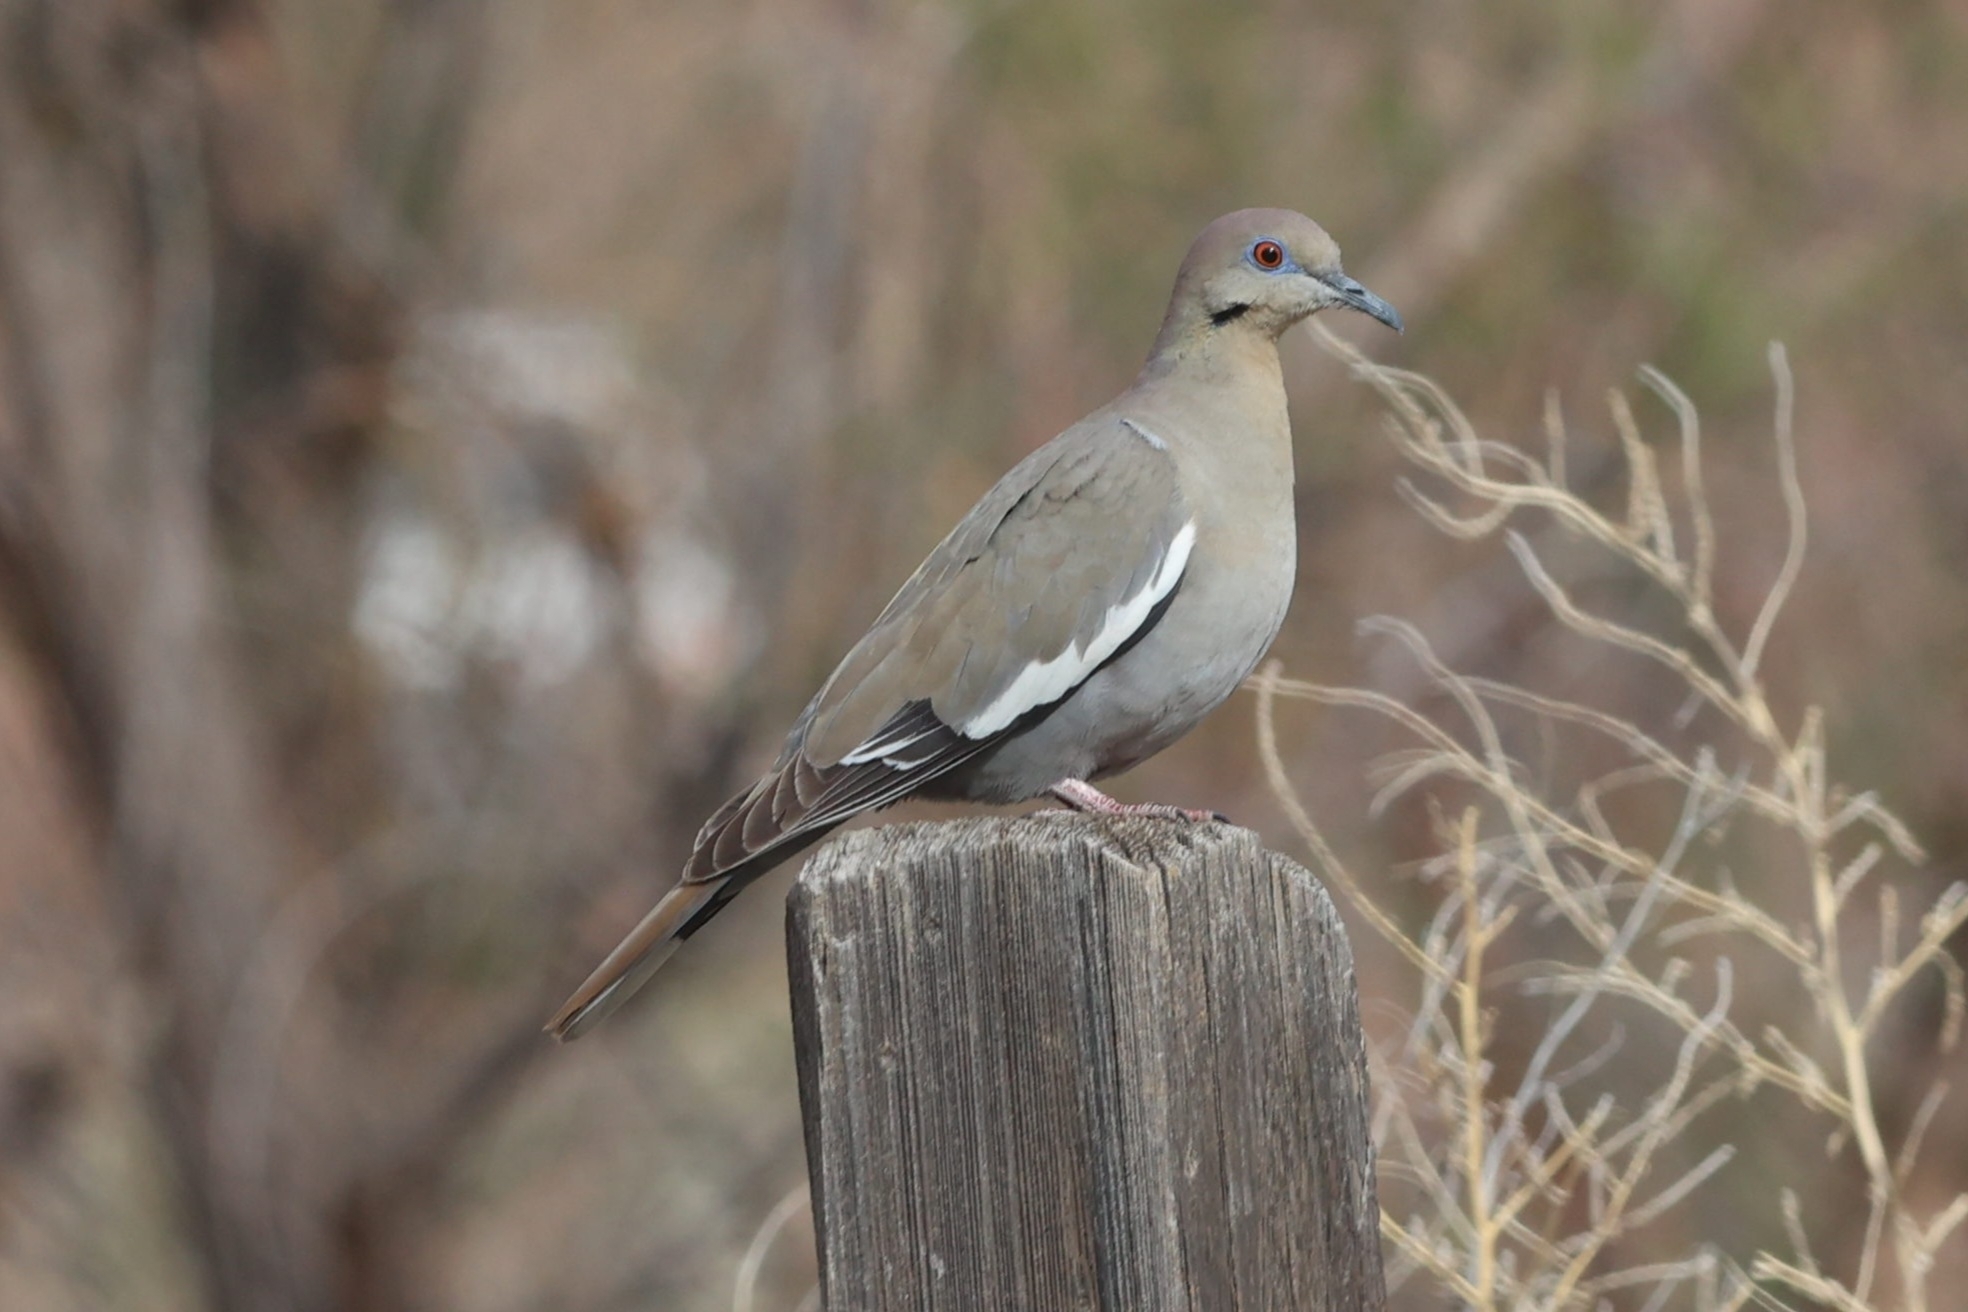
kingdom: Animalia
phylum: Chordata
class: Aves
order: Columbiformes
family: Columbidae
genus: Zenaida
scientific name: Zenaida asiatica
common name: White-winged dove
